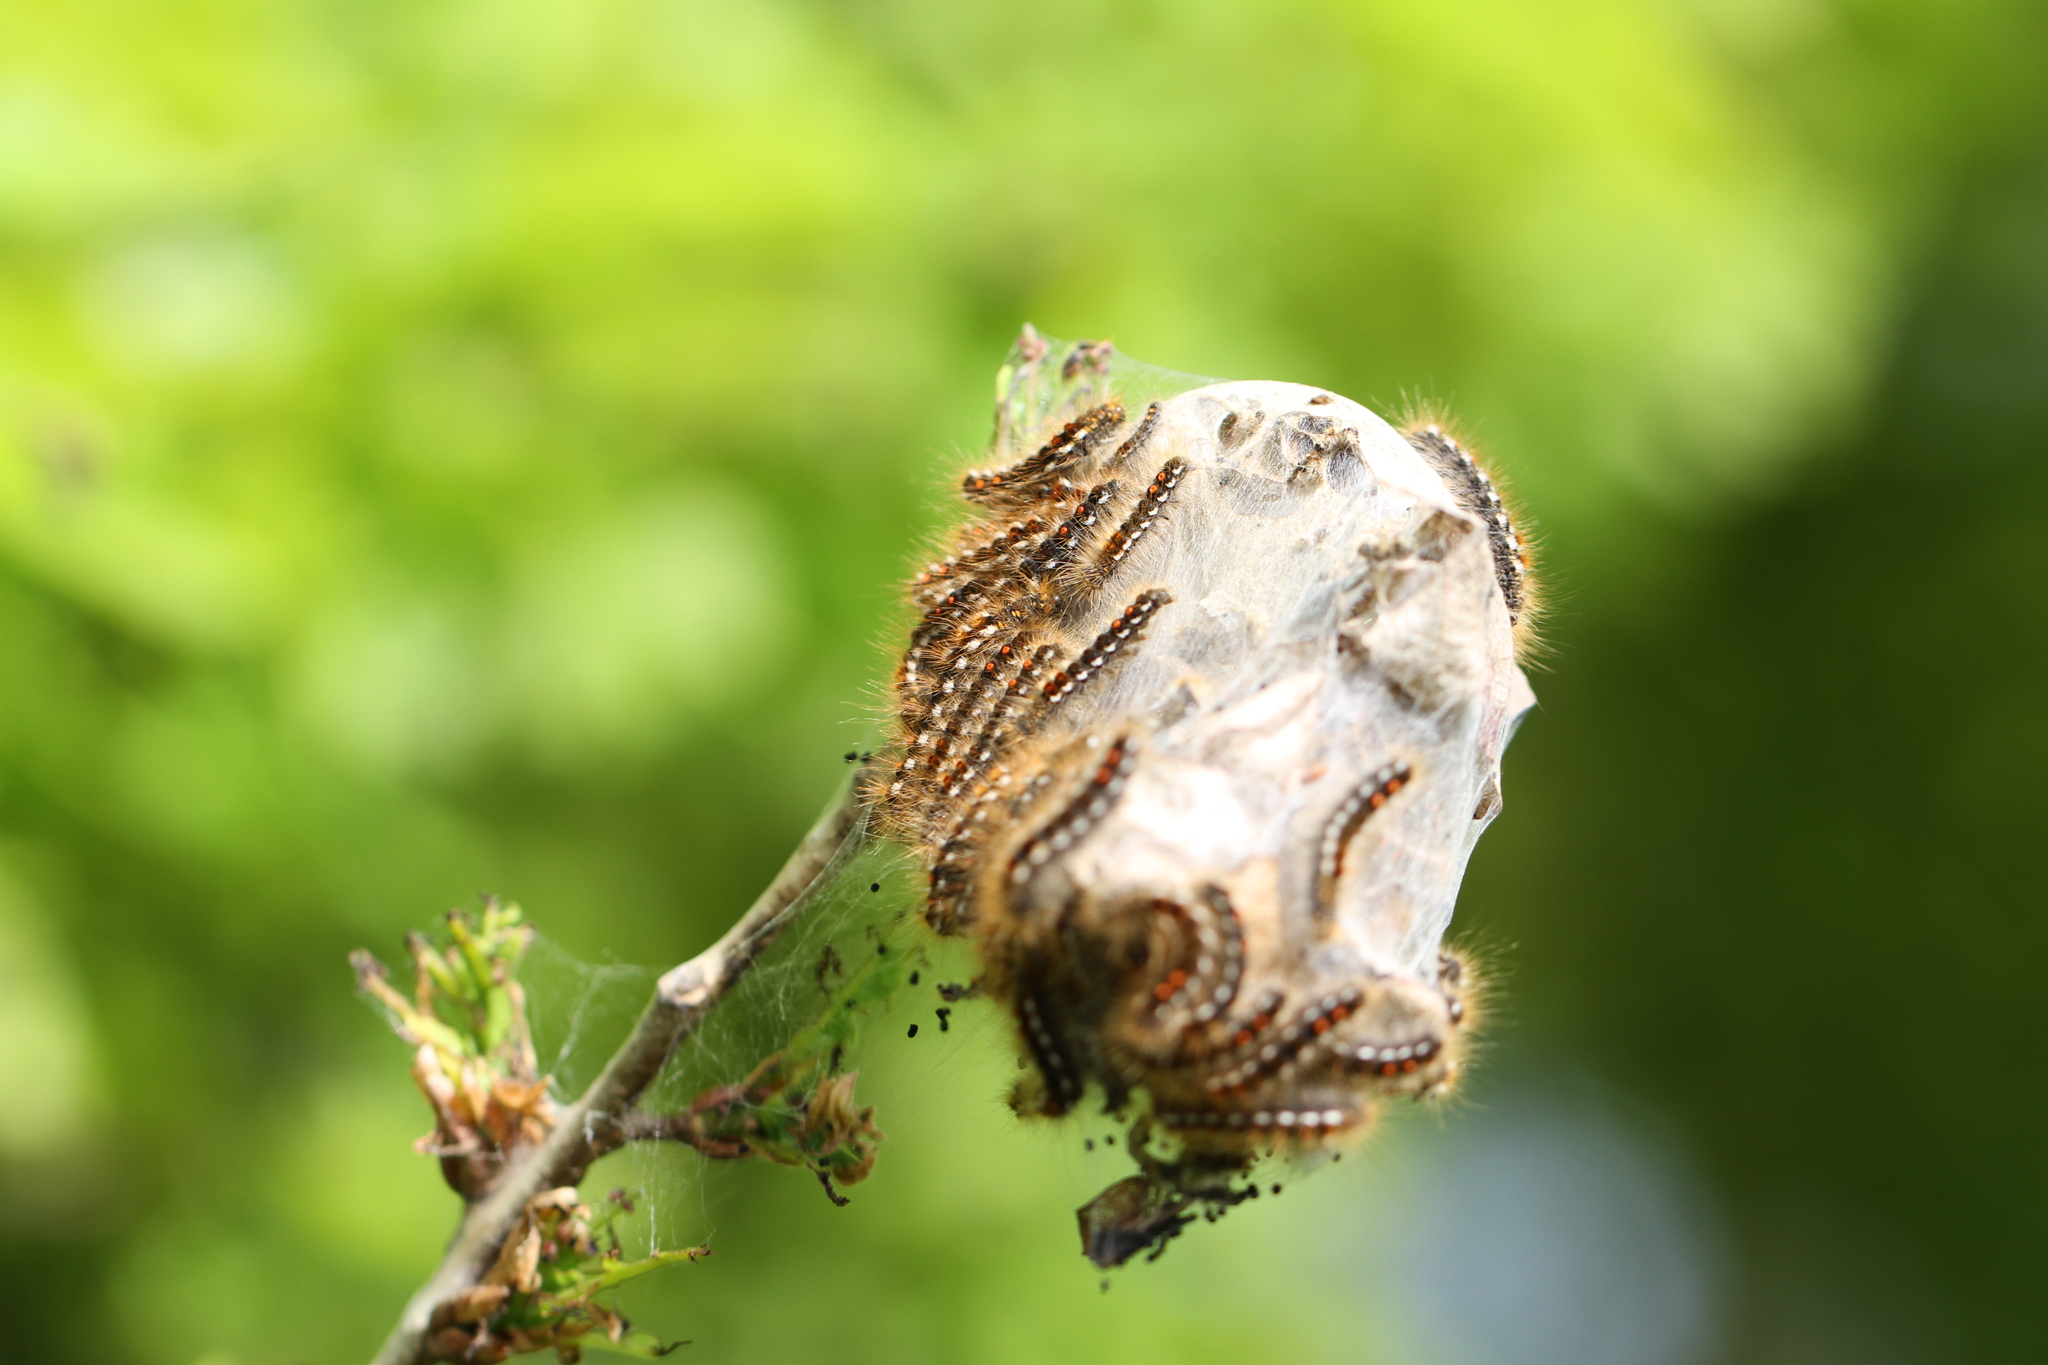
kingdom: Animalia
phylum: Arthropoda
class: Insecta
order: Lepidoptera
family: Erebidae
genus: Euproctis
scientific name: Euproctis chrysorrhoea
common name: Brown-tail
